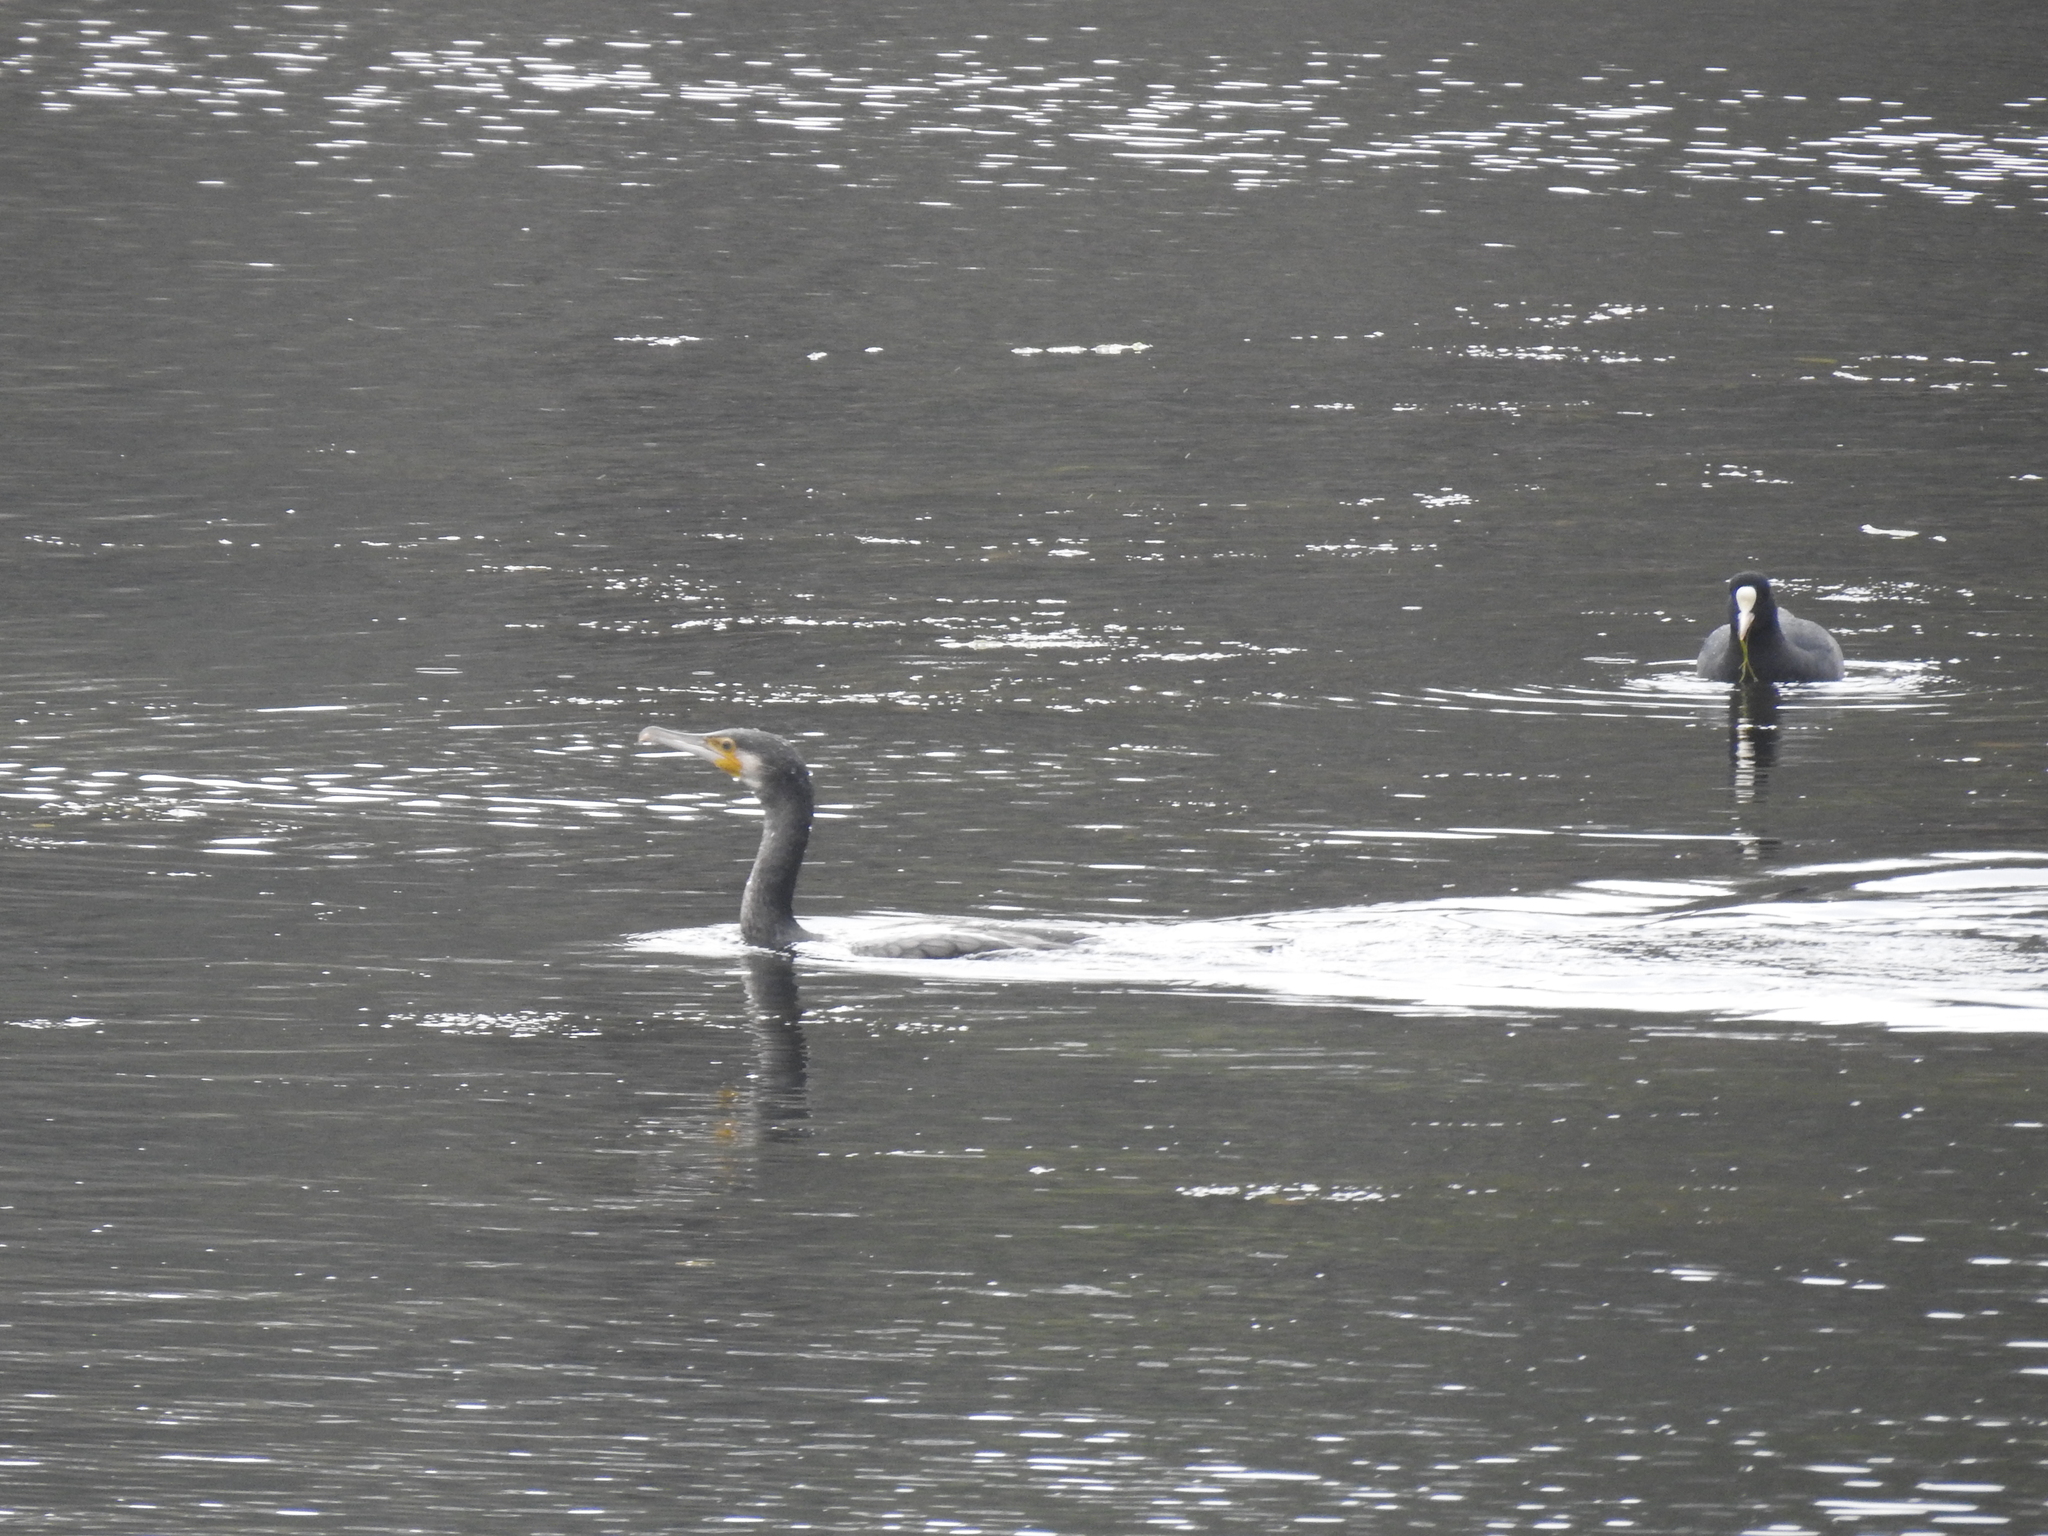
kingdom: Animalia
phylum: Chordata
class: Aves
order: Suliformes
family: Phalacrocoracidae
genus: Phalacrocorax
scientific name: Phalacrocorax carbo
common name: Great cormorant
